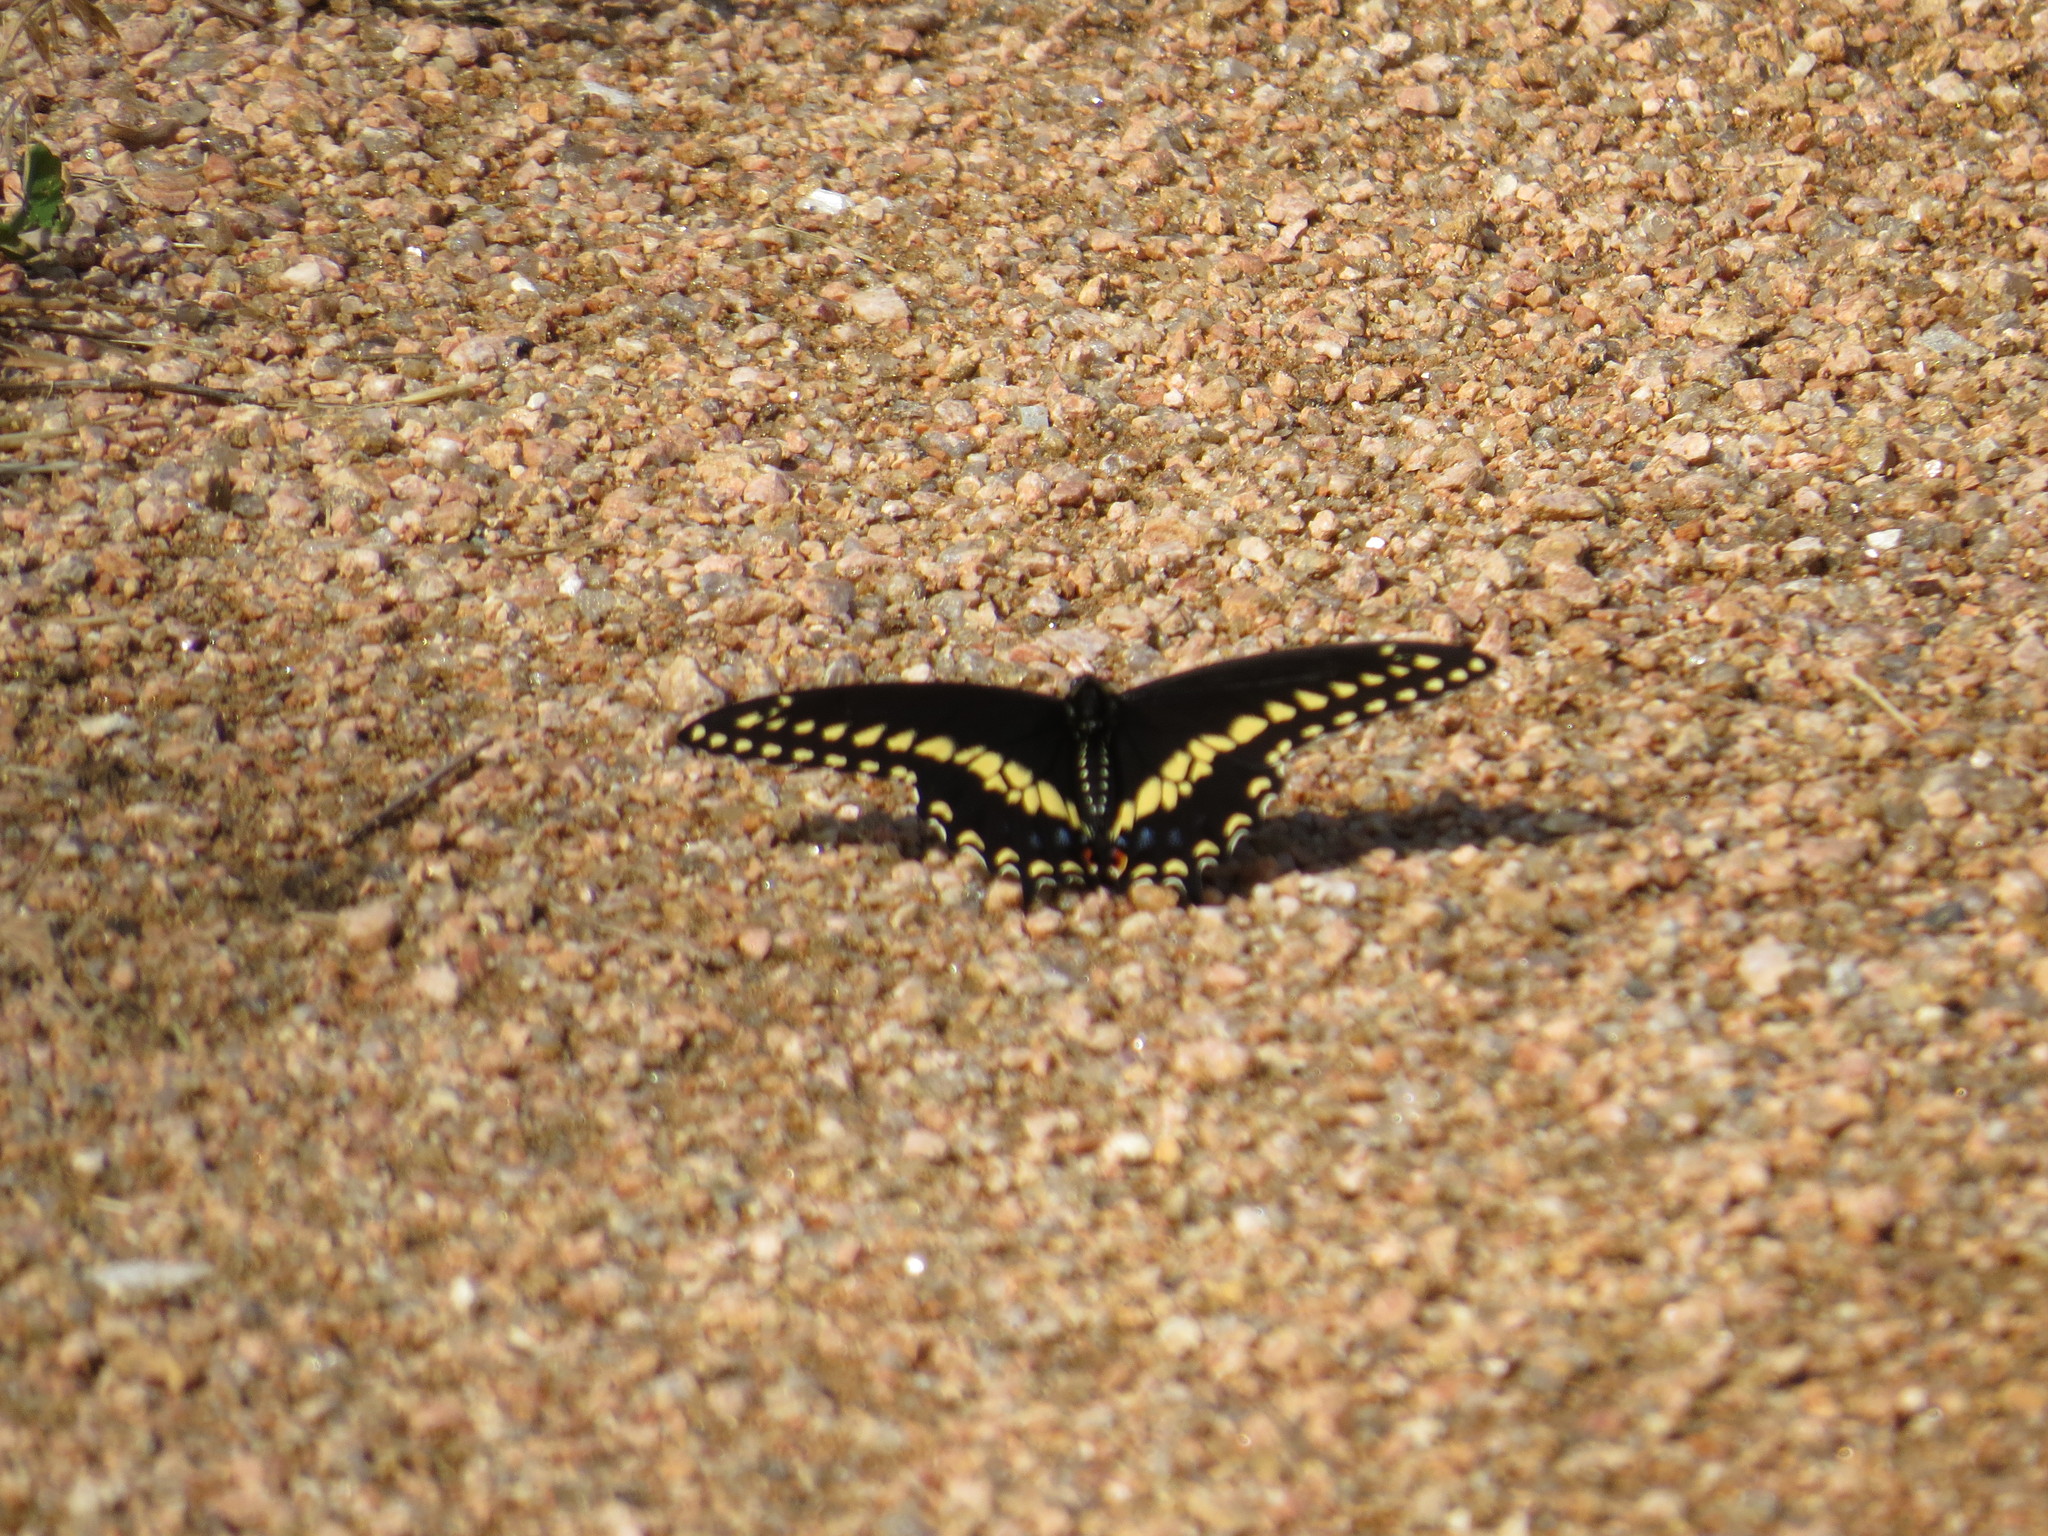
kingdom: Animalia
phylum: Arthropoda
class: Insecta
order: Lepidoptera
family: Papilionidae
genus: Papilio
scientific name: Papilio polyxenes
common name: Black swallowtail
